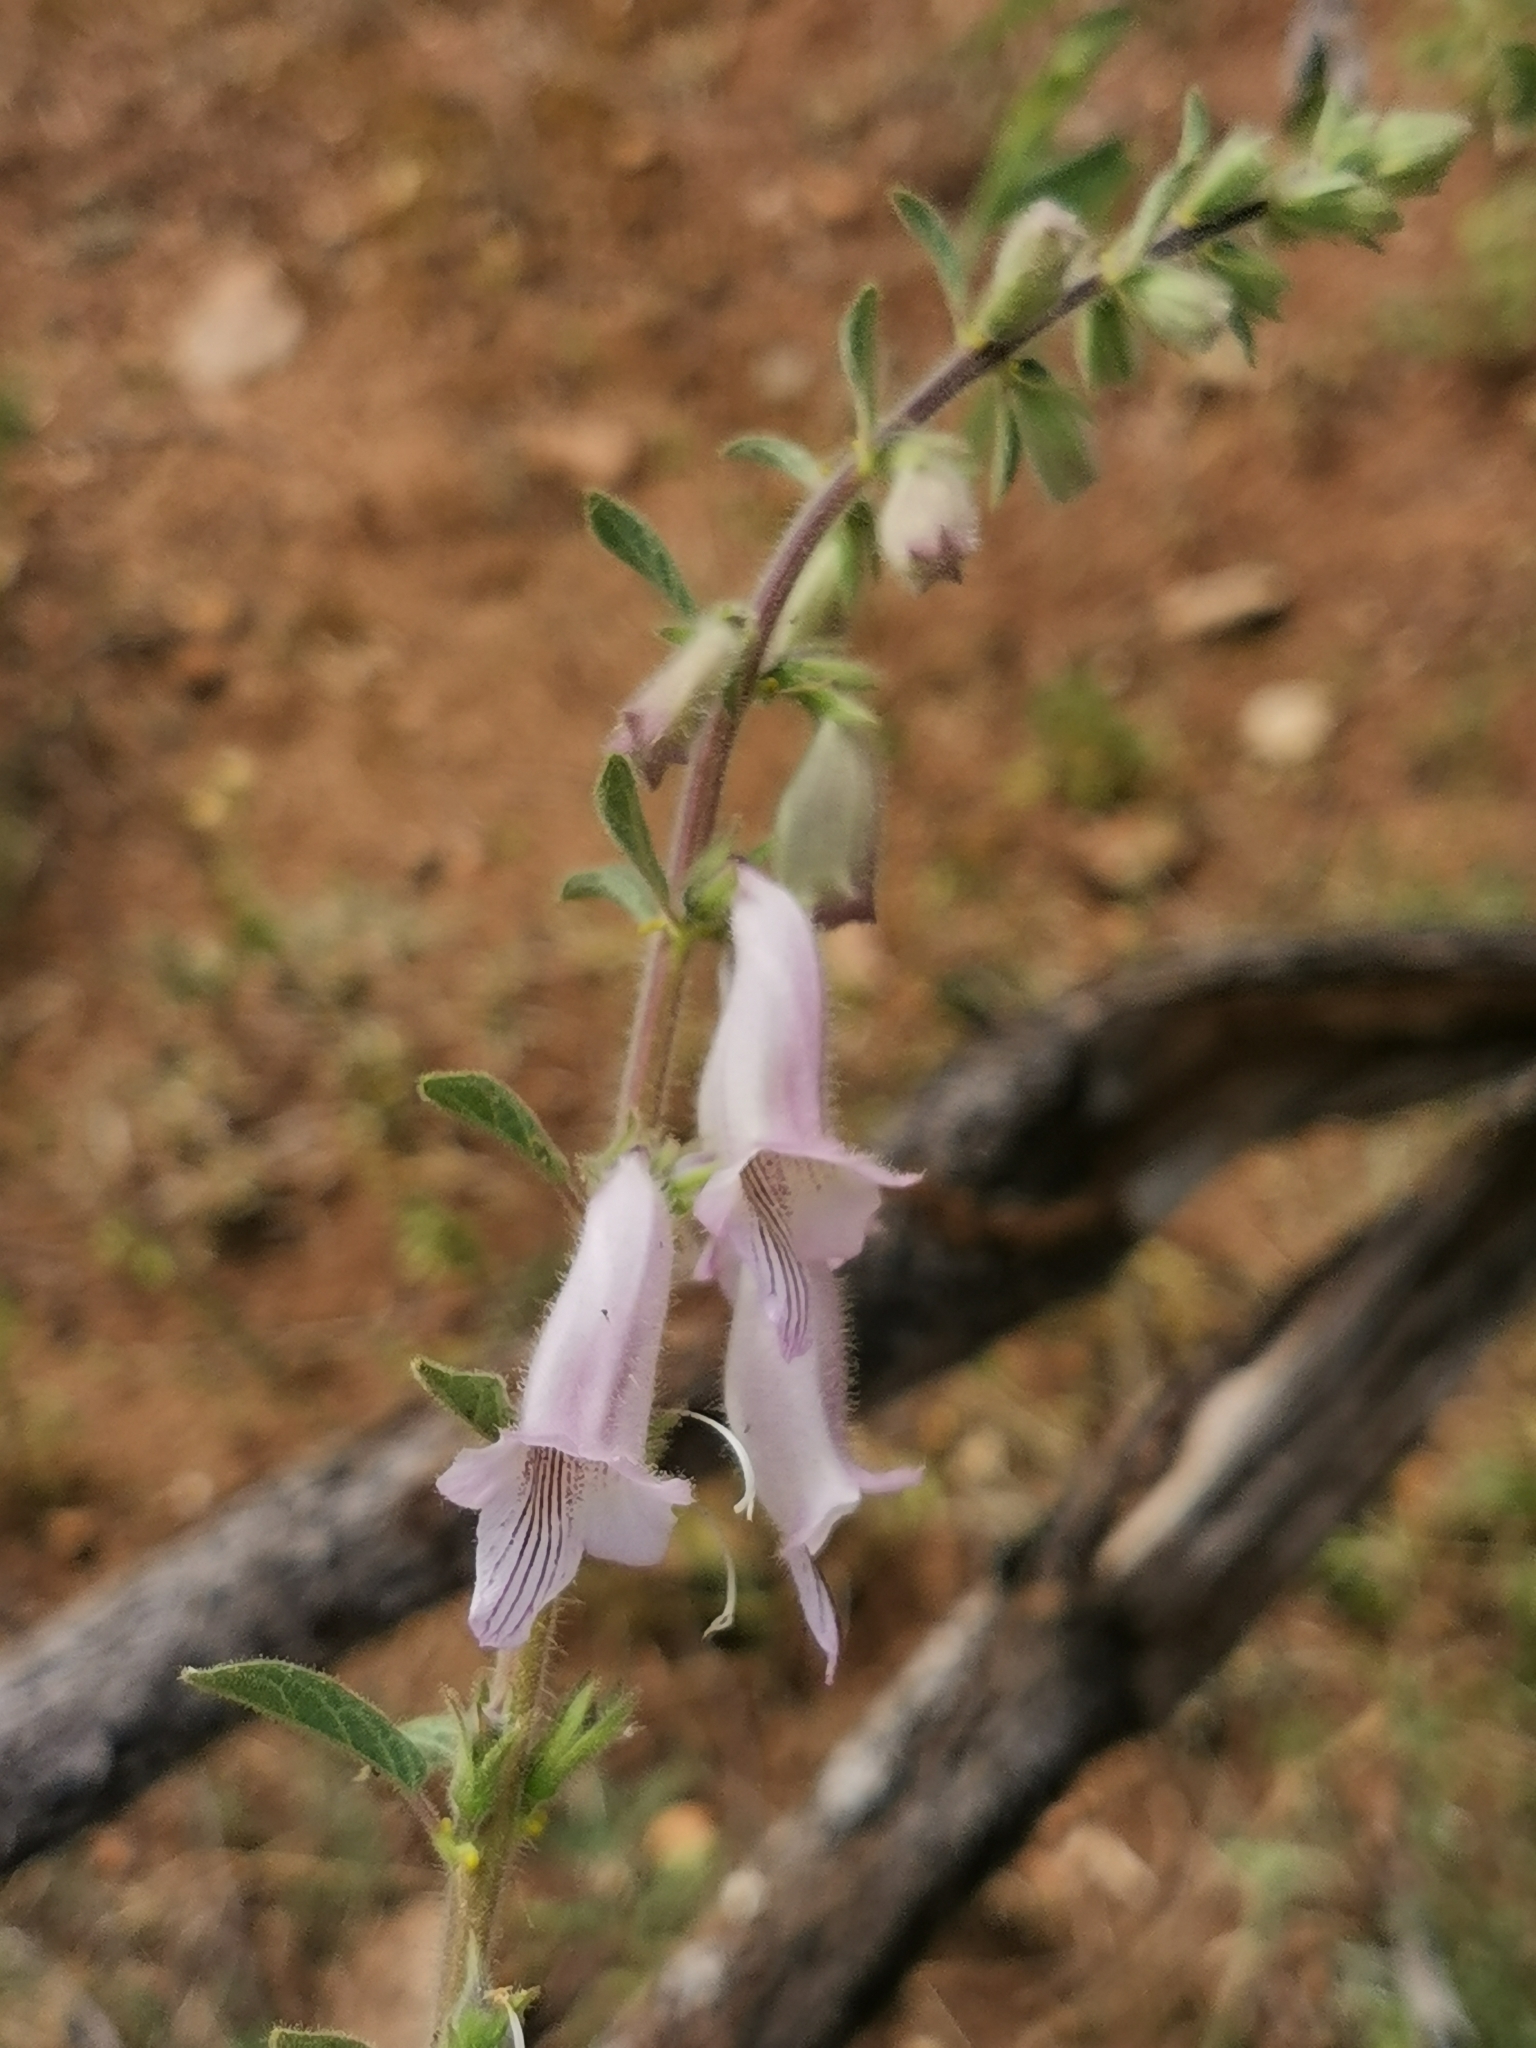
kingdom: Plantae
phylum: Tracheophyta
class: Magnoliopsida
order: Lamiales
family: Pedaliaceae
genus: Sesamum
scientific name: Sesamum trilobum
